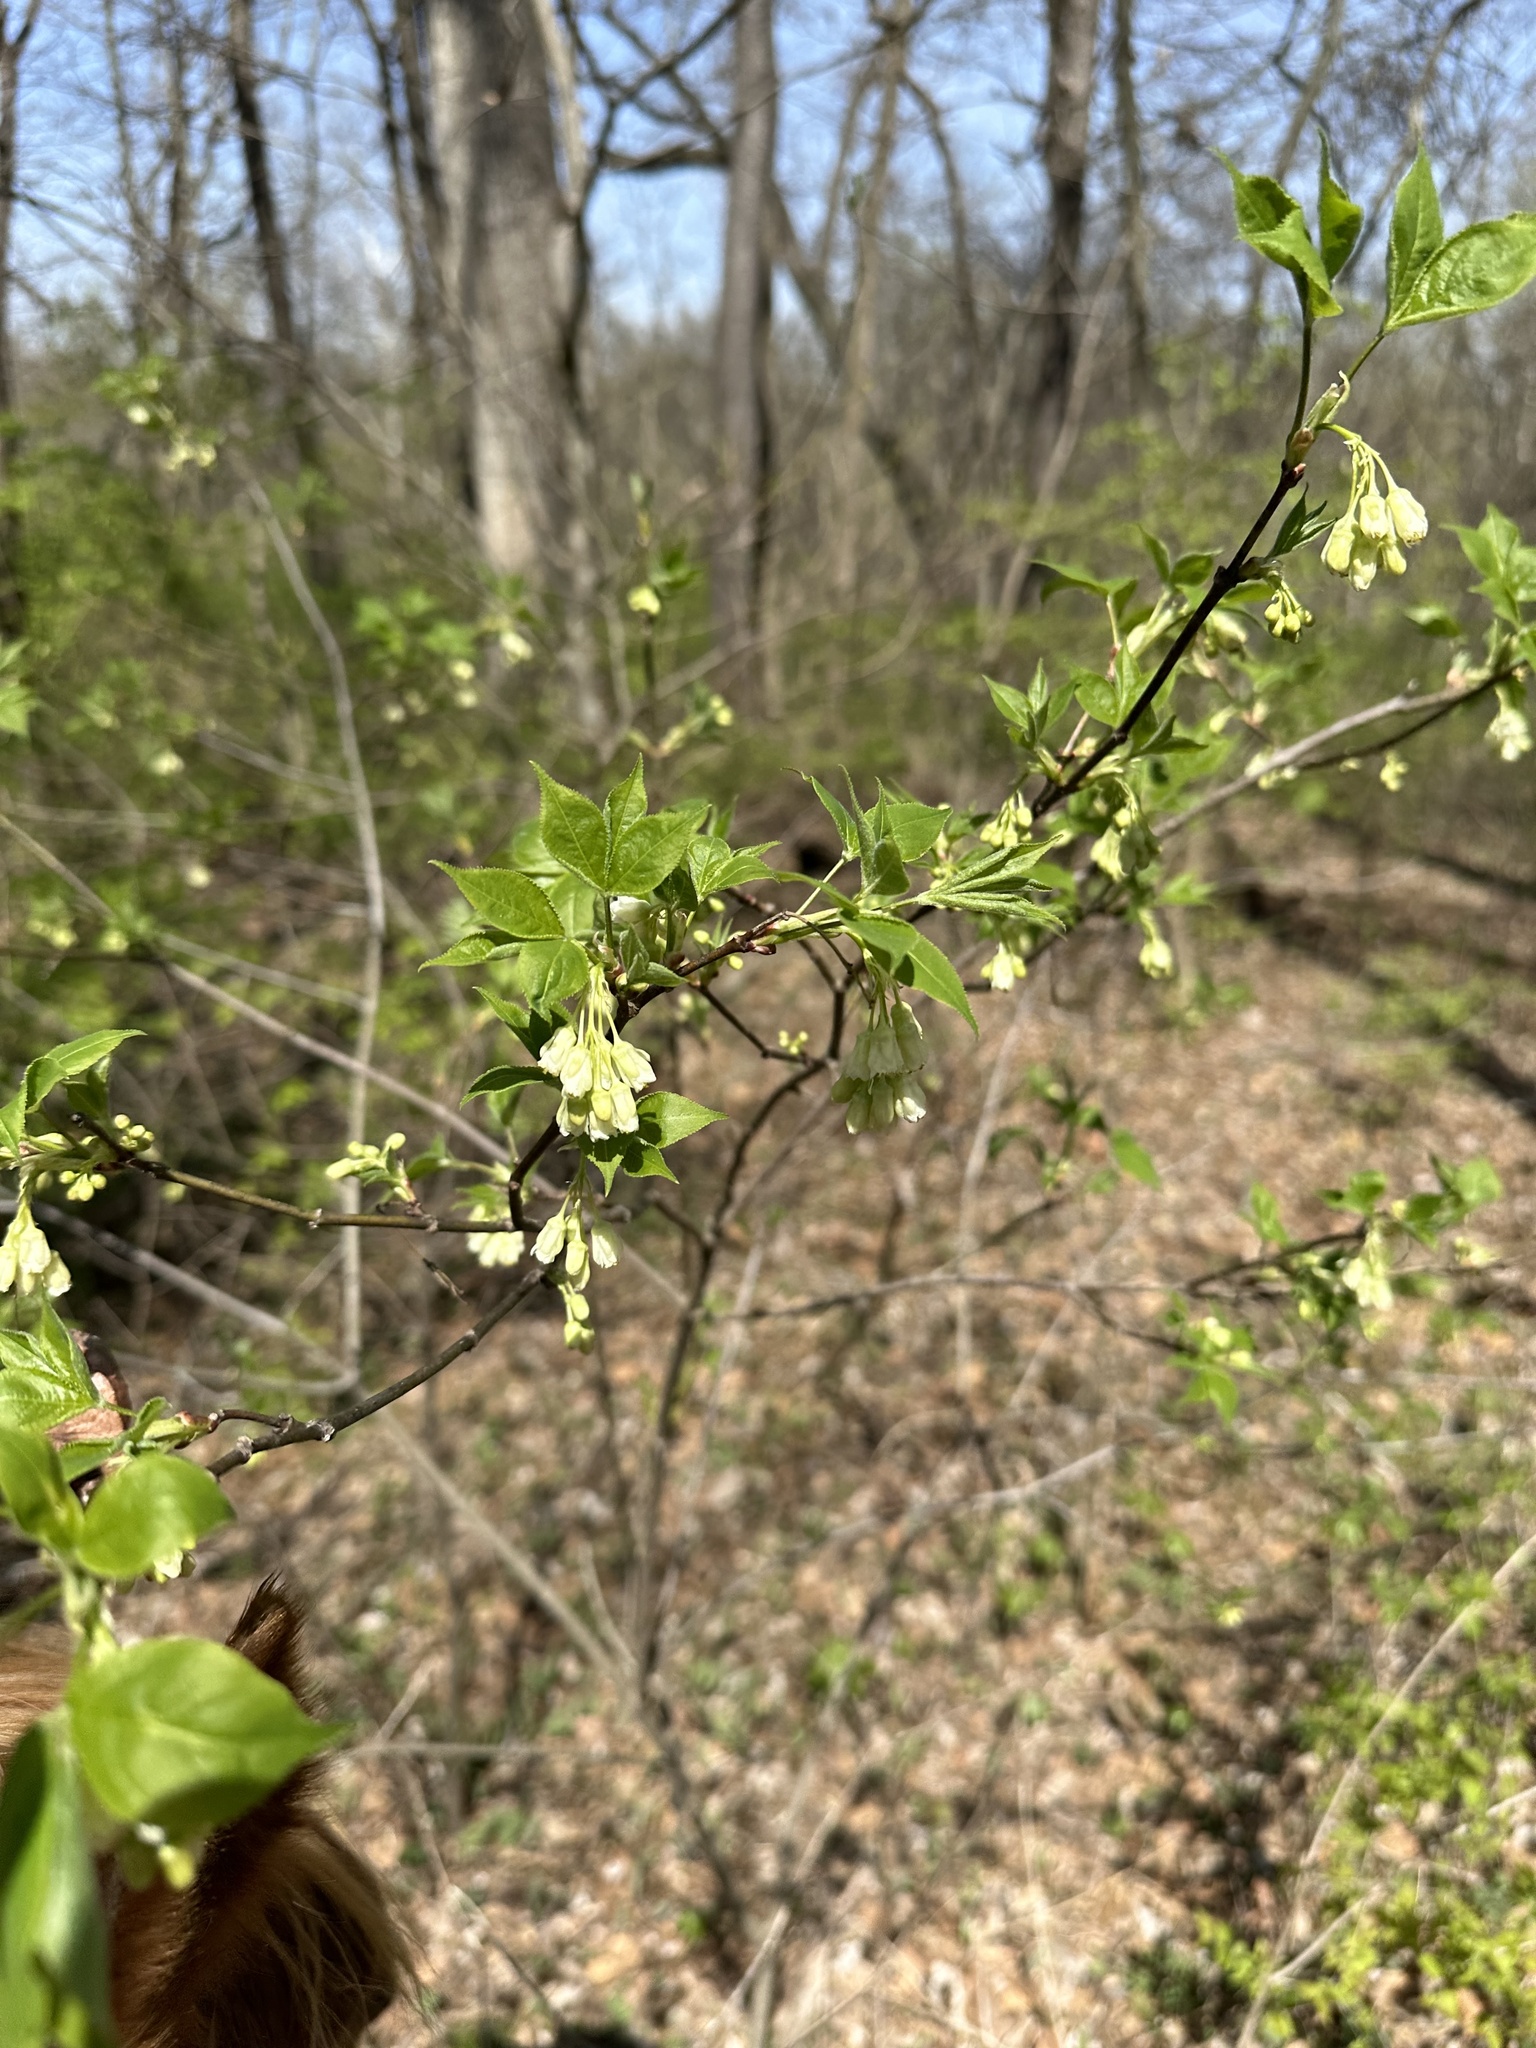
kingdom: Plantae
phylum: Tracheophyta
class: Magnoliopsida
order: Crossosomatales
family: Staphyleaceae
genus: Staphylea
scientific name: Staphylea trifolia
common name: American bladdernut
